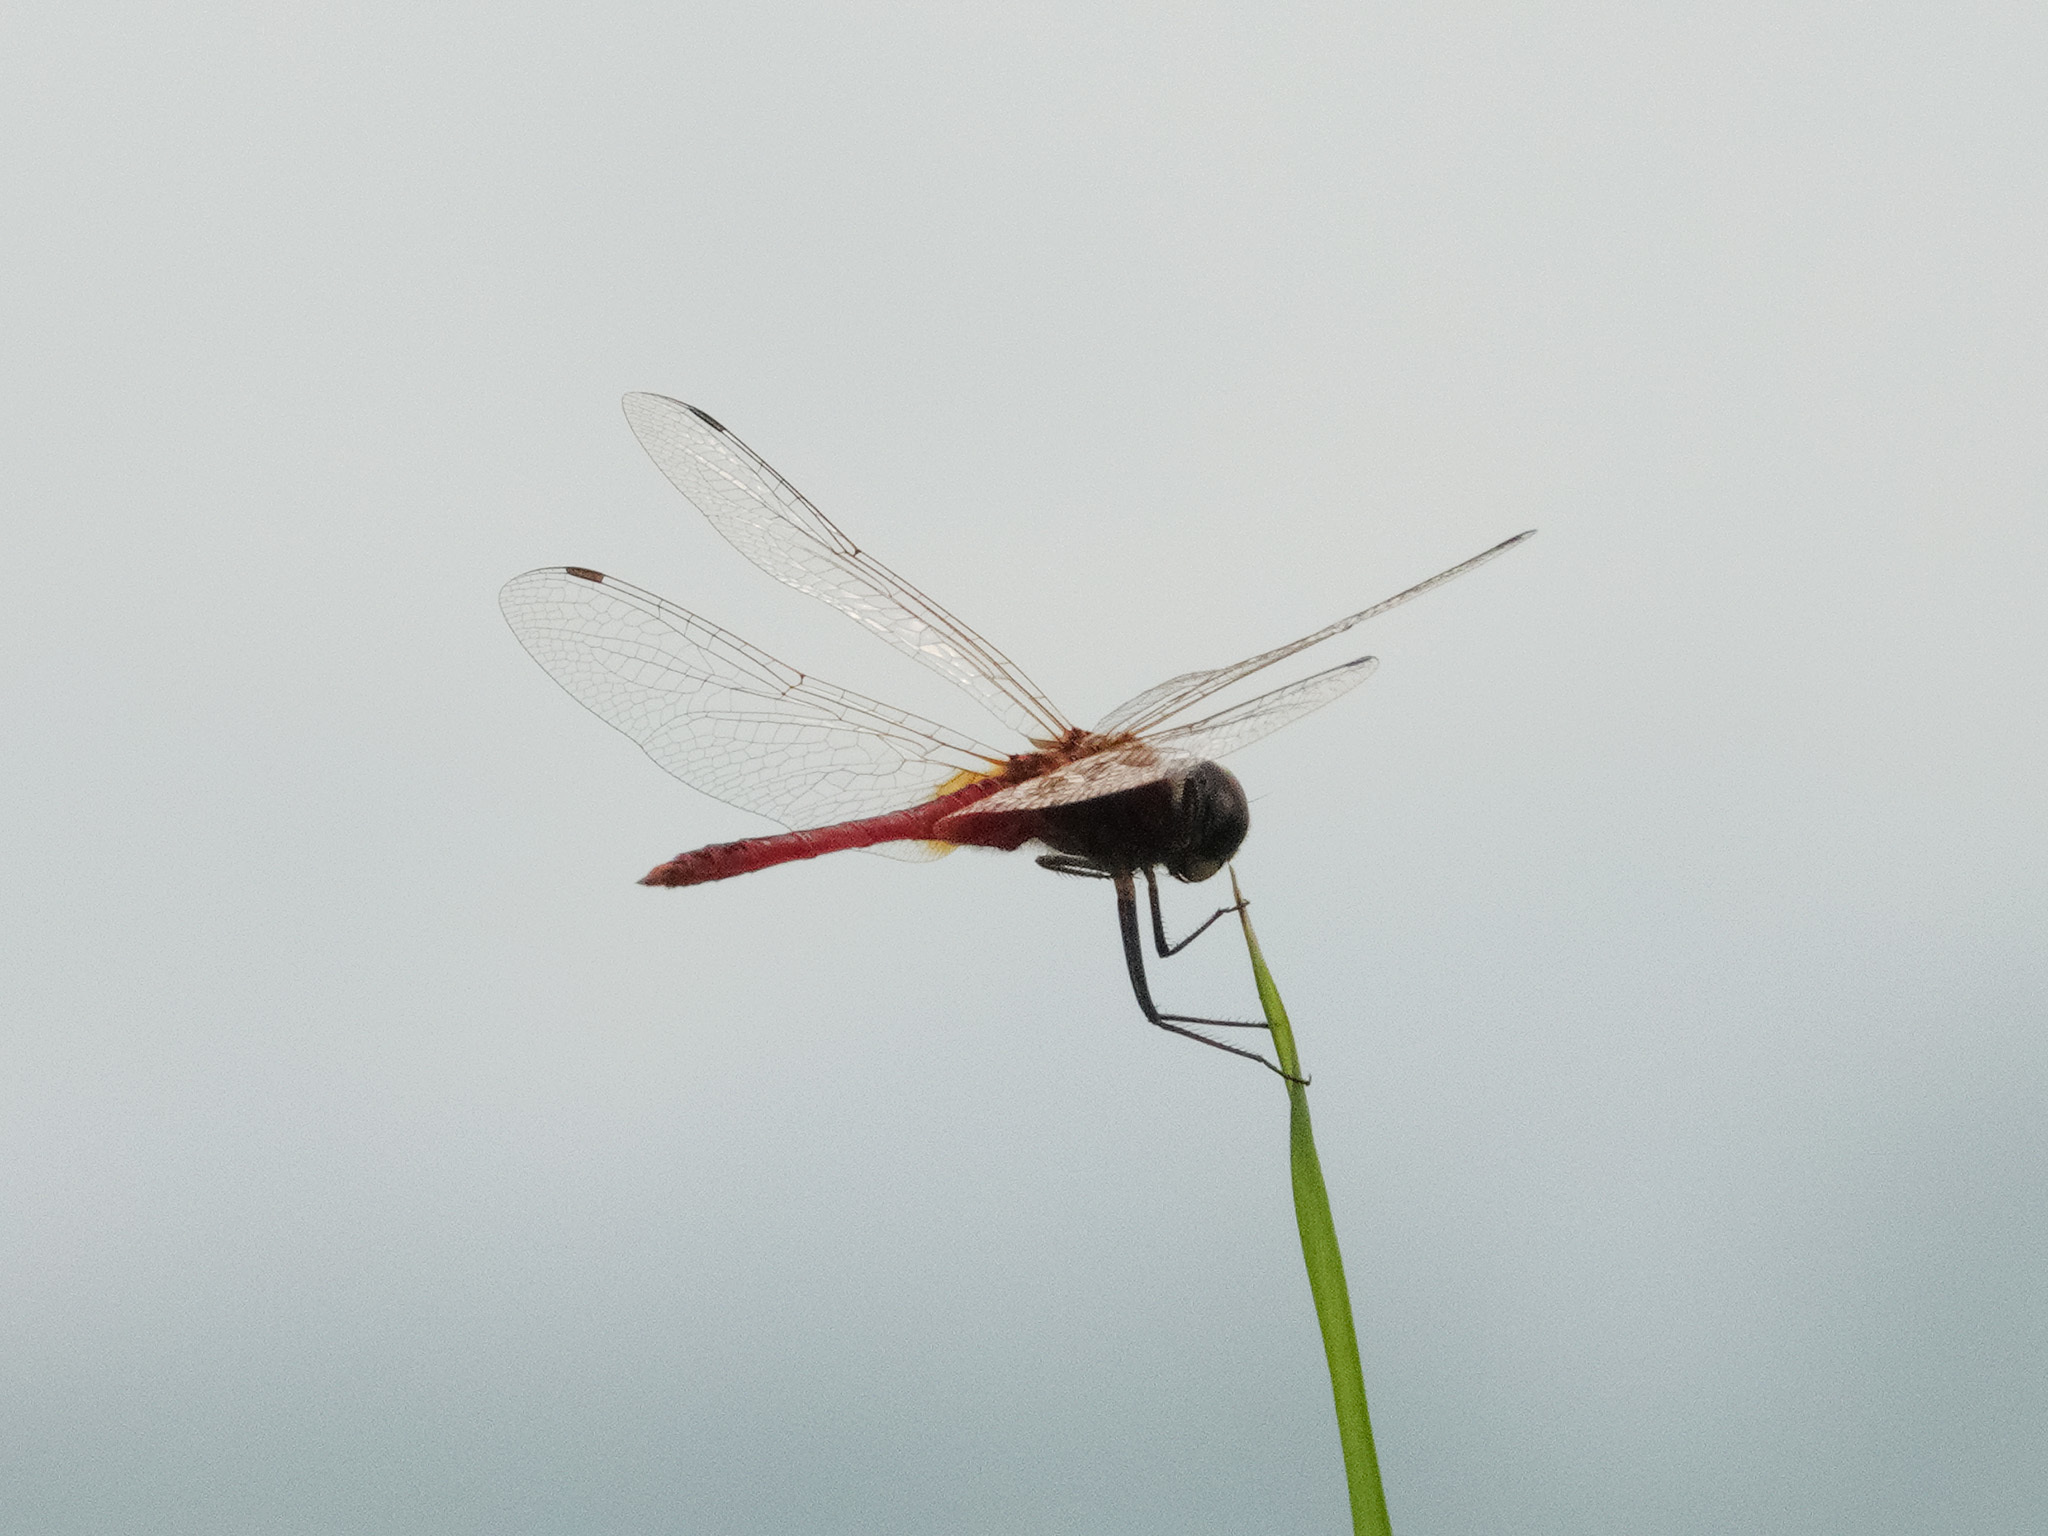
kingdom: Animalia
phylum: Arthropoda
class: Insecta
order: Odonata
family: Libellulidae
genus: Urothemis
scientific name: Urothemis signata
